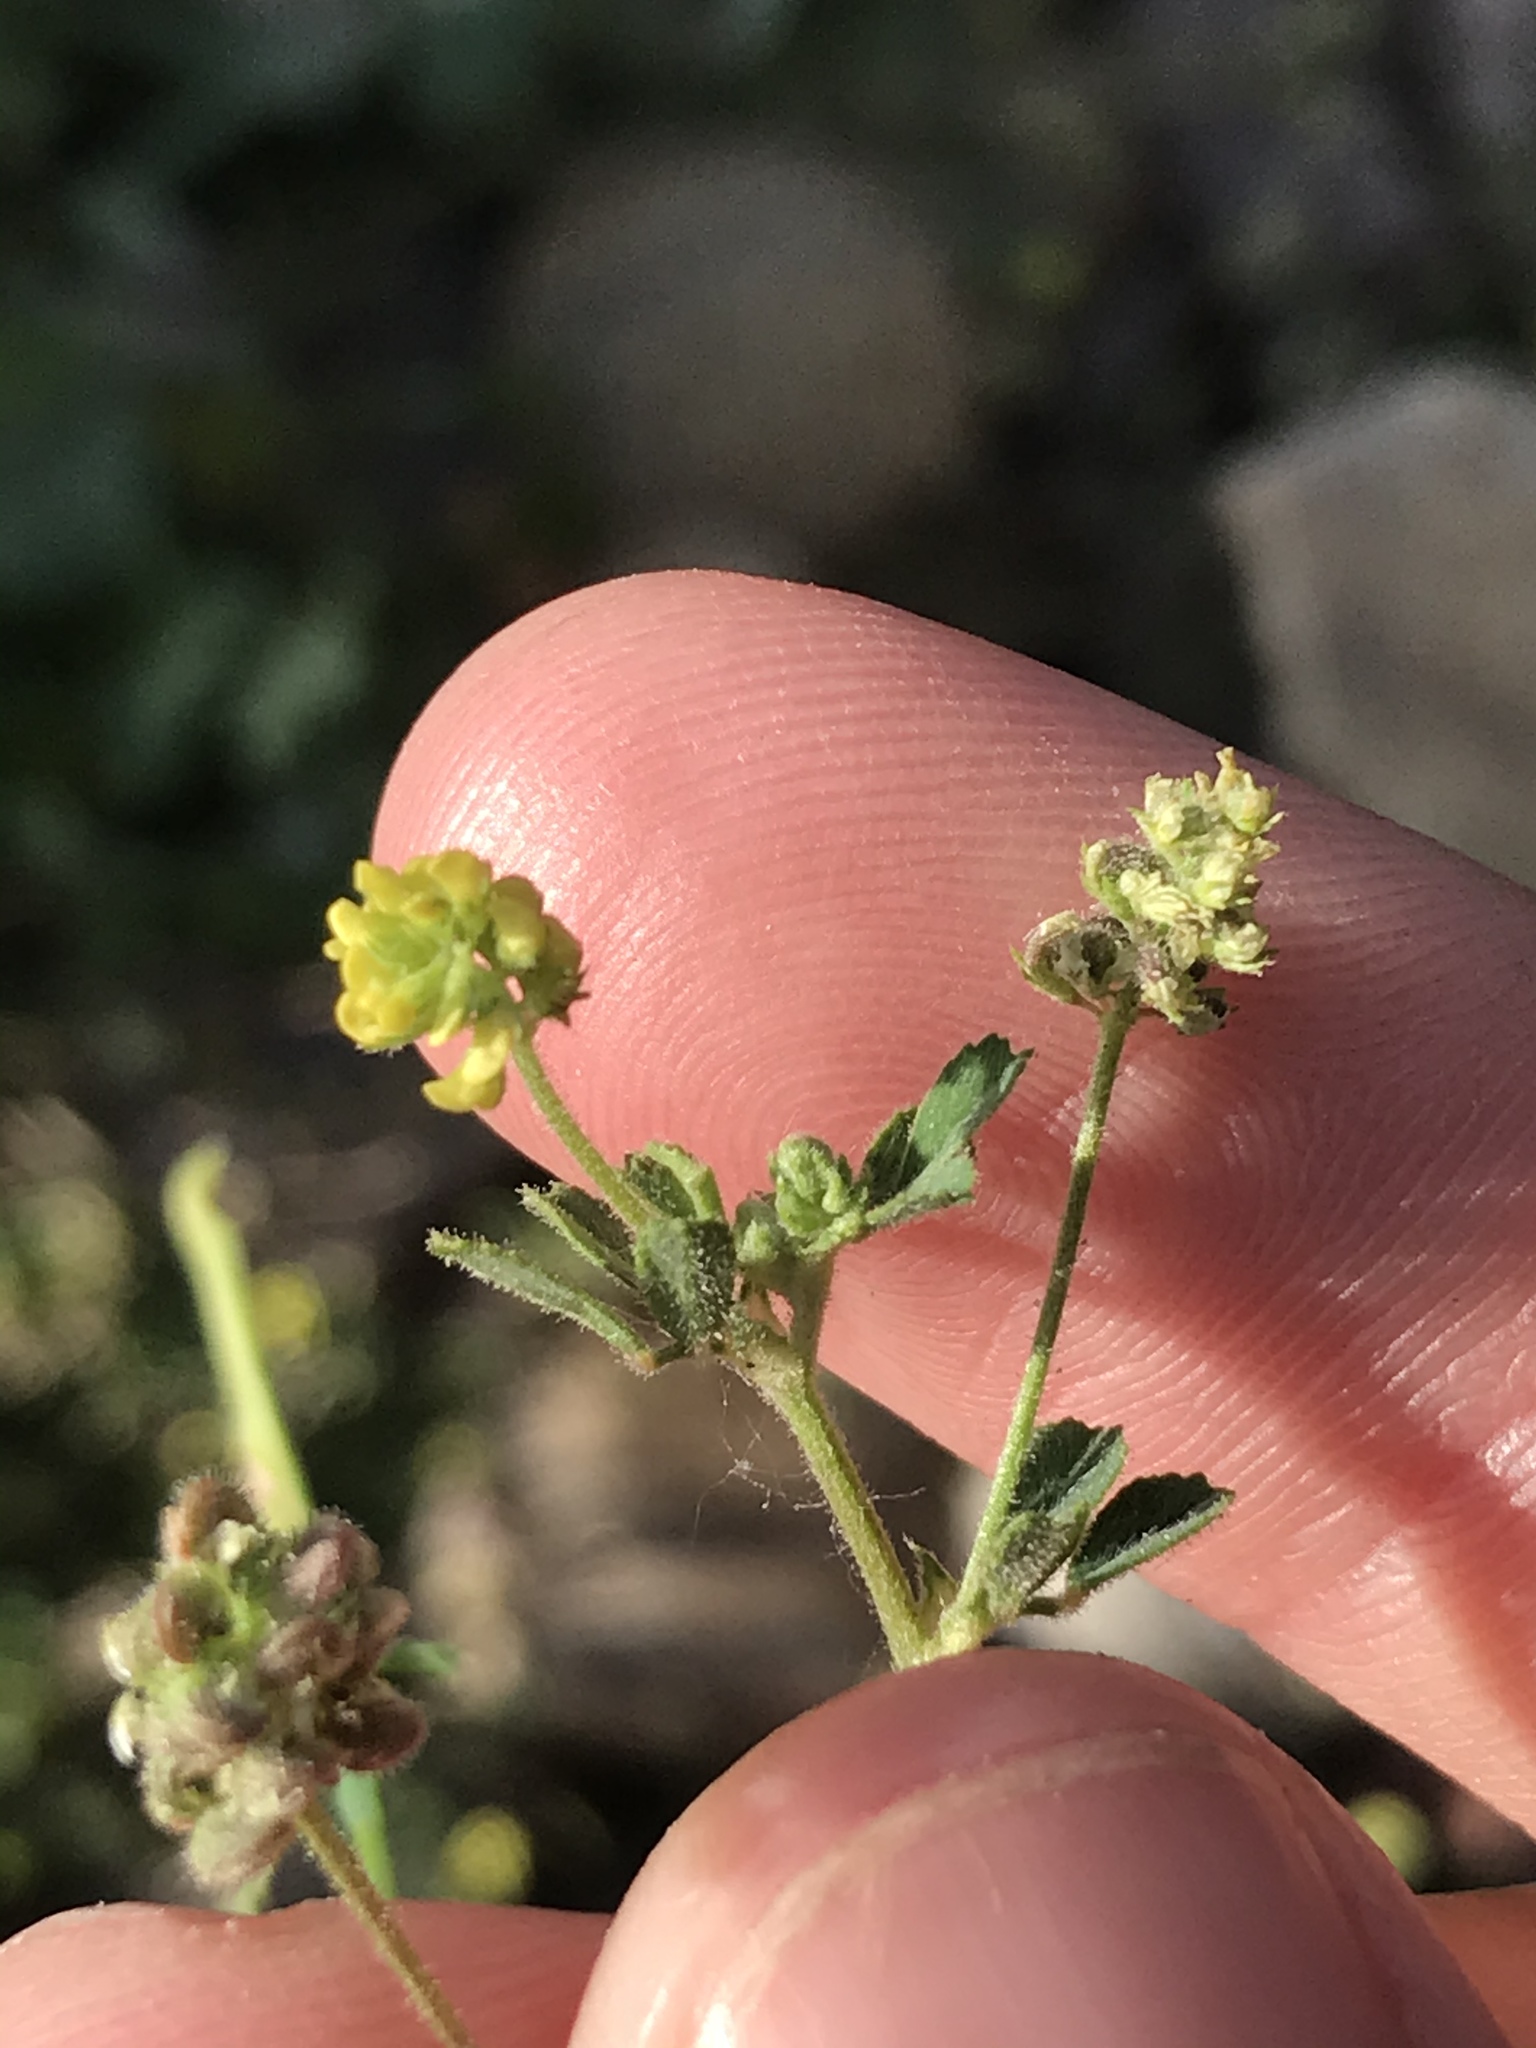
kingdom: Plantae
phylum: Tracheophyta
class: Magnoliopsida
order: Fabales
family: Fabaceae
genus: Medicago
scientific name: Medicago lupulina
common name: Black medick
